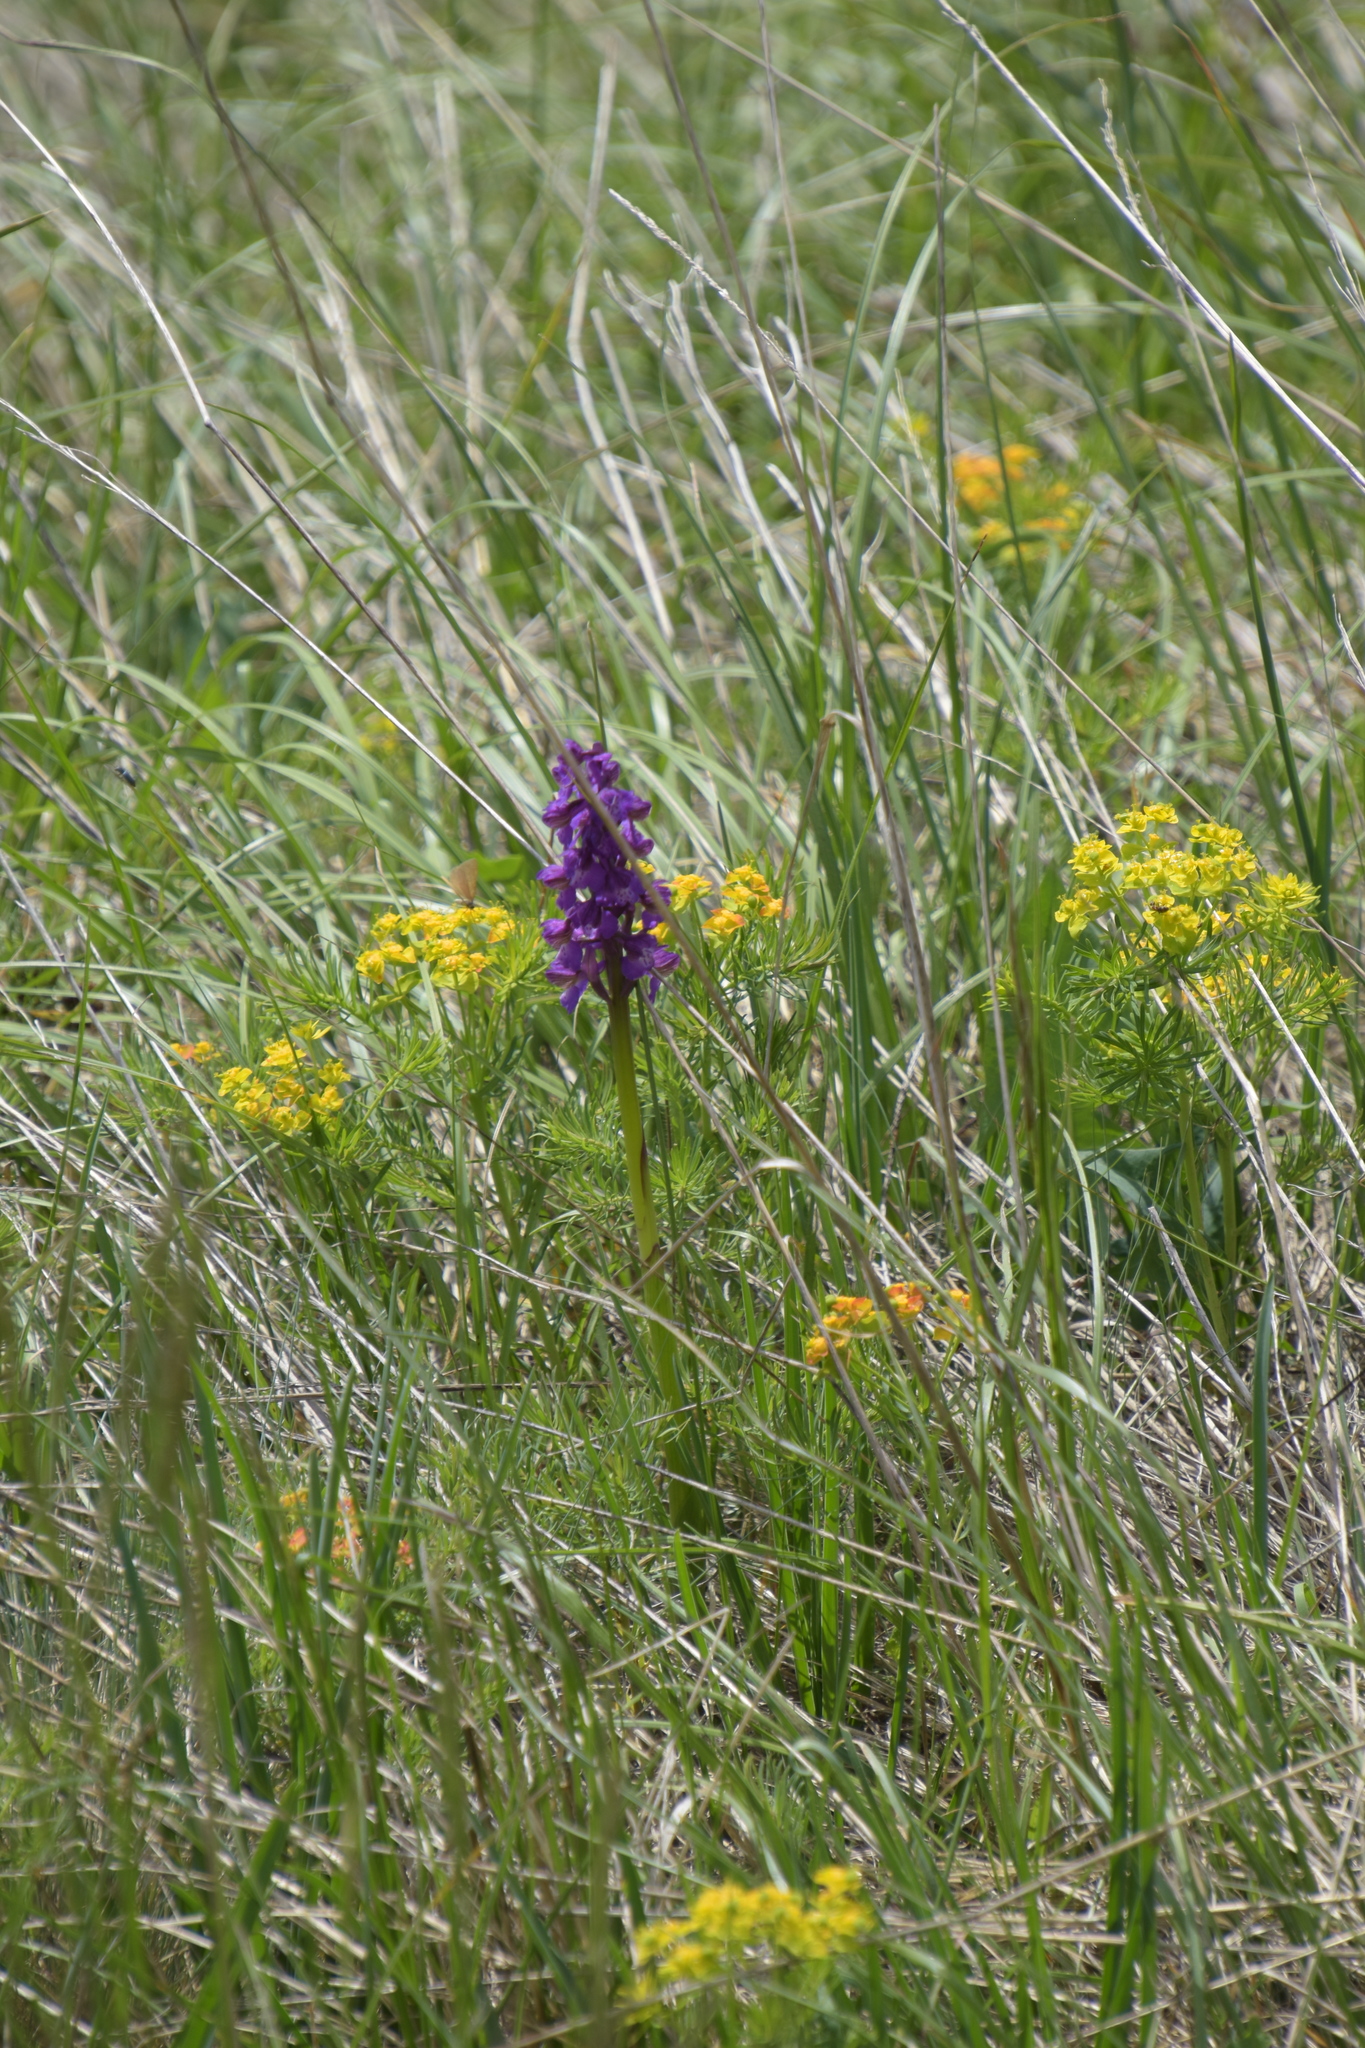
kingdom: Plantae
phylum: Tracheophyta
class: Liliopsida
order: Asparagales
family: Orchidaceae
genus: Anacamptis
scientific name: Anacamptis morio
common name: Green-winged orchid
